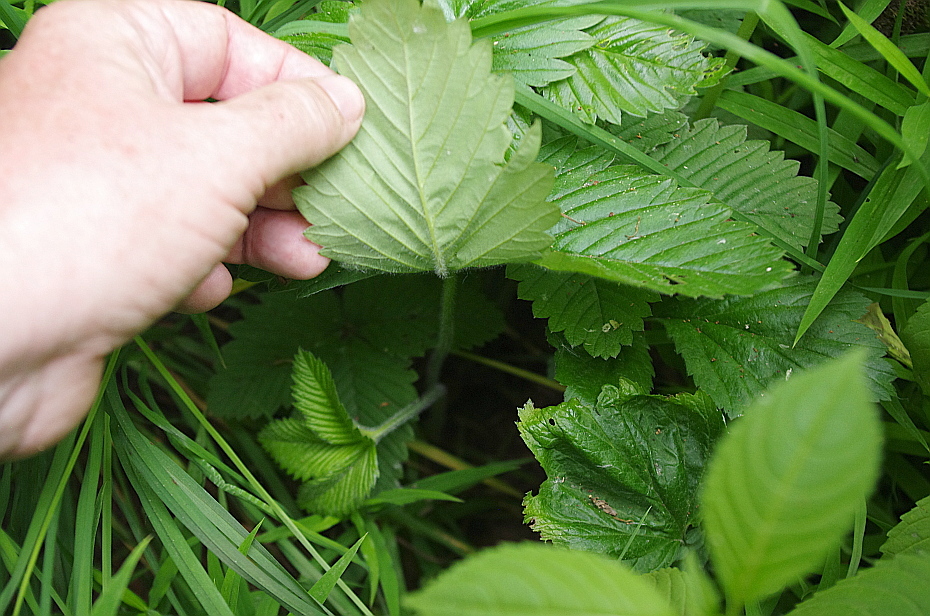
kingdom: Plantae
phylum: Tracheophyta
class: Magnoliopsida
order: Rosales
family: Rosaceae
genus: Fragaria
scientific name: Fragaria moschata
